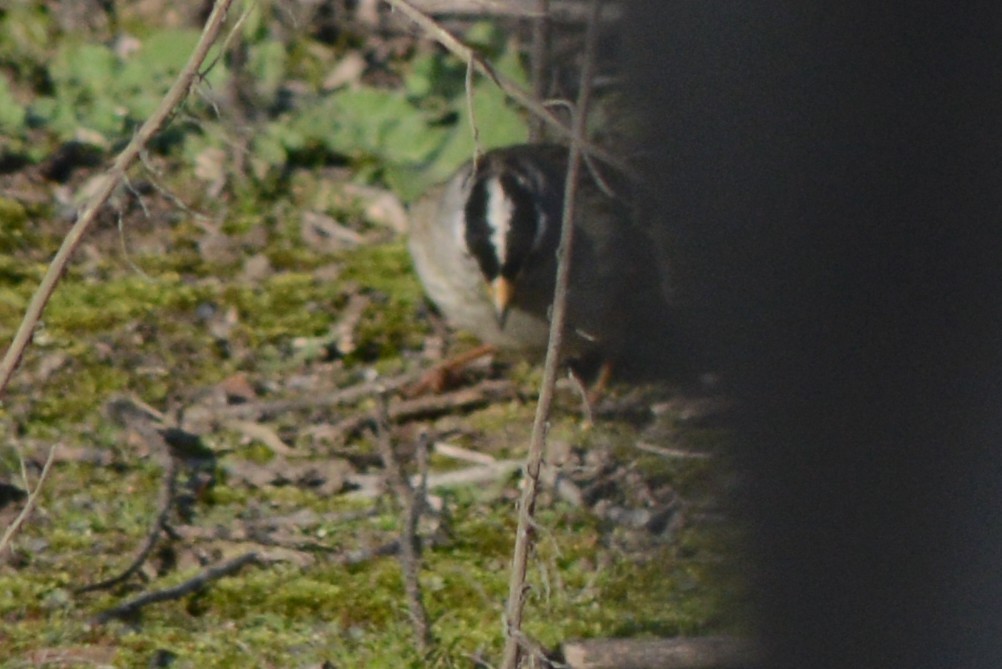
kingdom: Animalia
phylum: Chordata
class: Aves
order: Passeriformes
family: Passerellidae
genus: Zonotrichia
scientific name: Zonotrichia leucophrys
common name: White-crowned sparrow
